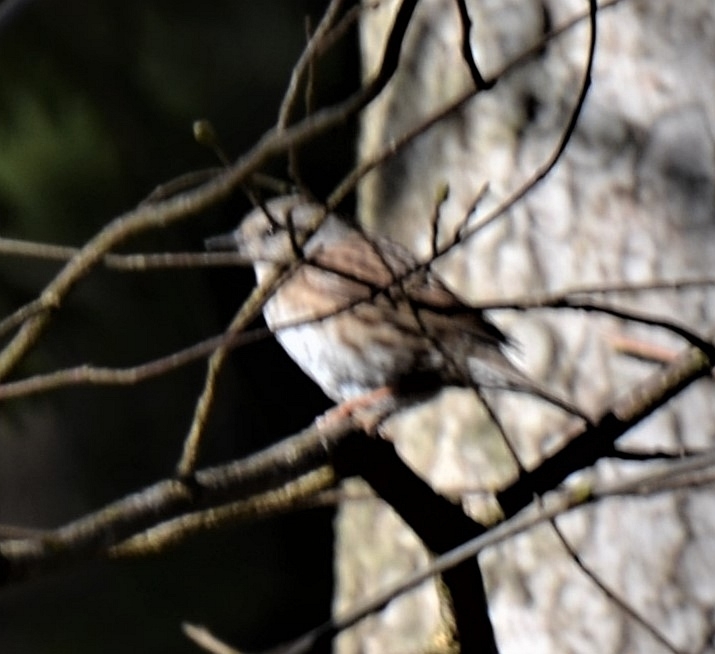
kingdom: Animalia
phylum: Chordata
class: Aves
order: Passeriformes
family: Prunellidae
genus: Prunella
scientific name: Prunella modularis
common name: Dunnock
